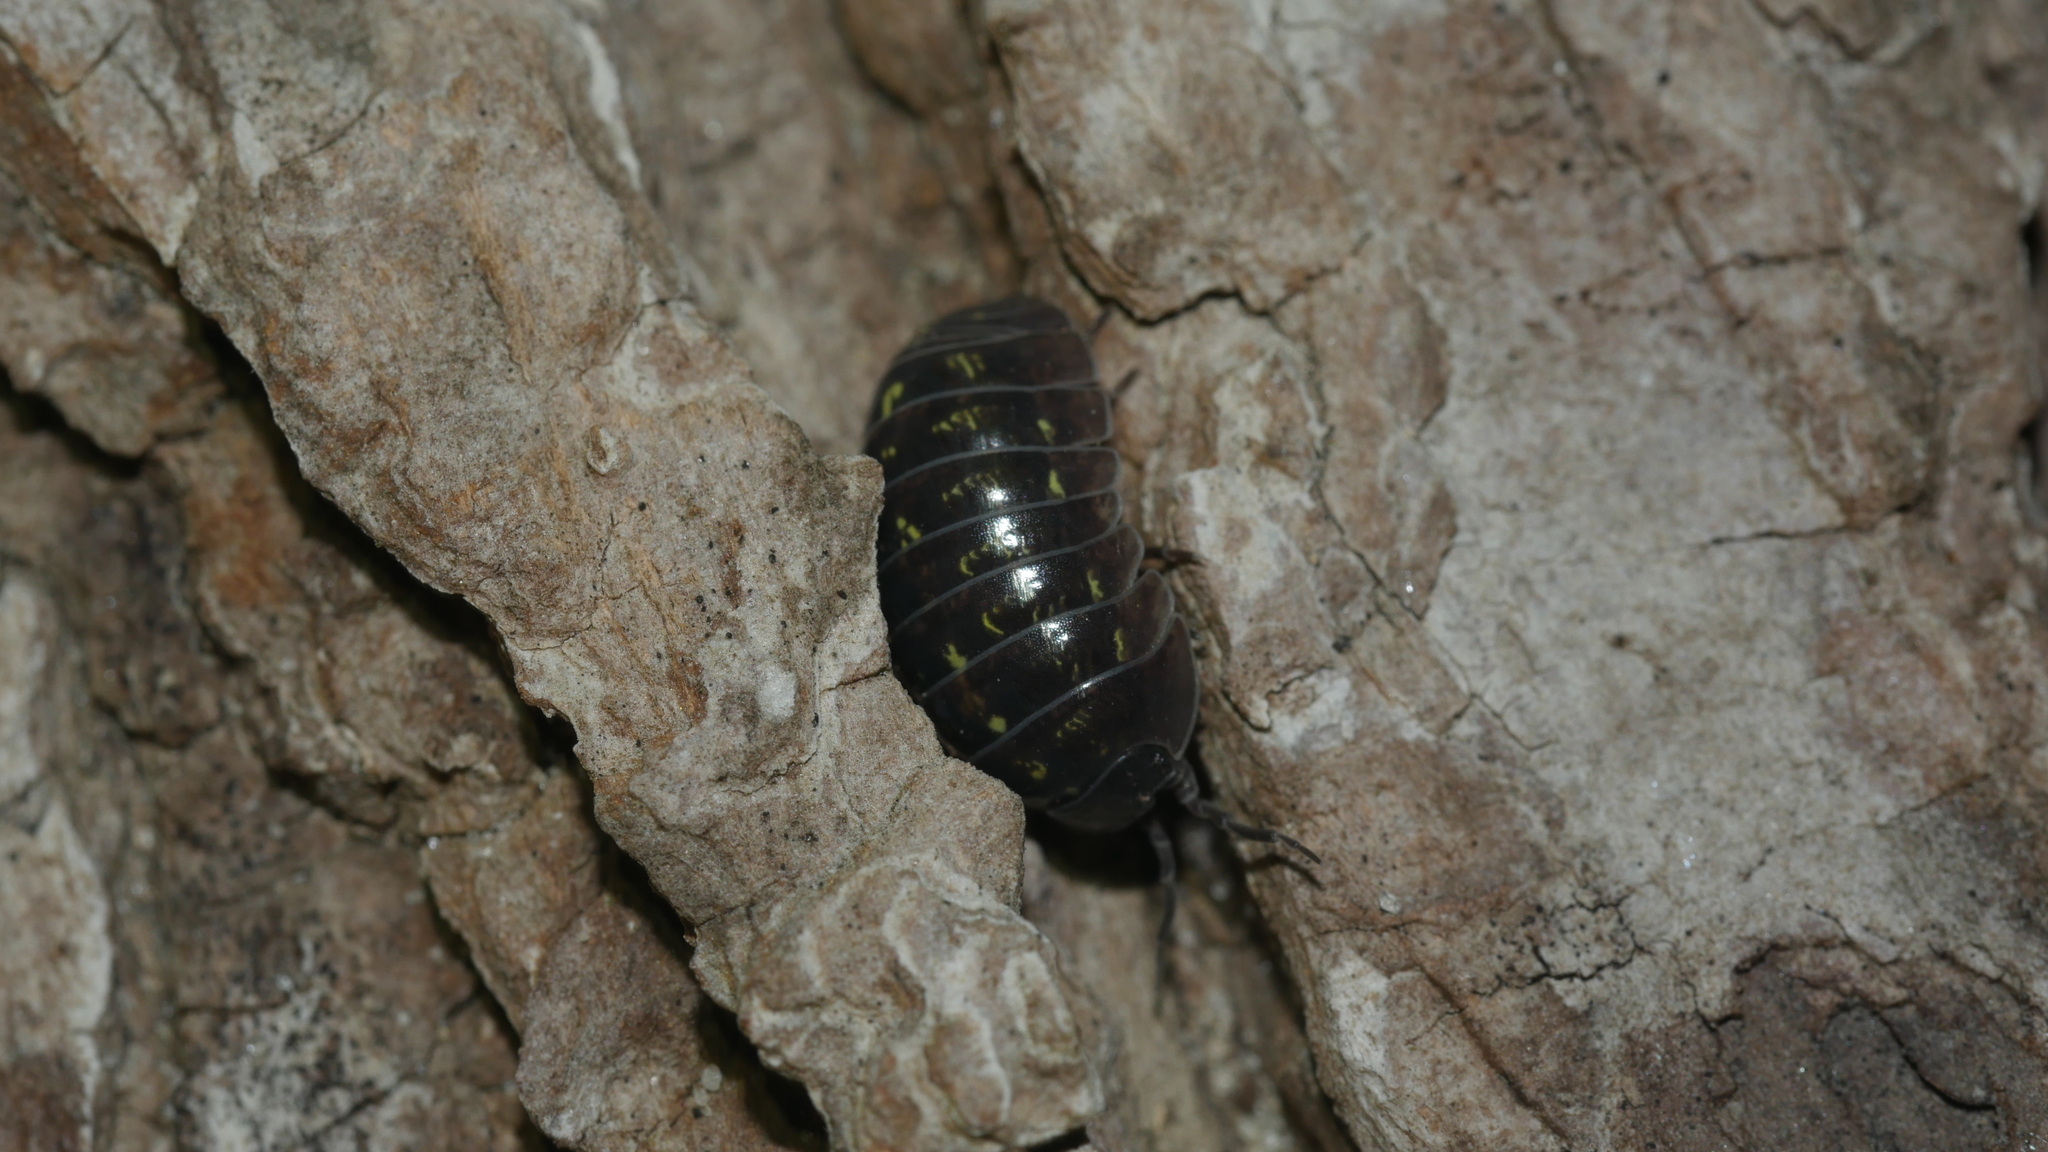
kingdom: Animalia
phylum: Arthropoda
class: Malacostraca
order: Isopoda
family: Armadillidiidae
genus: Armadillidium
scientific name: Armadillidium vulgare
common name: Common pill woodlouse
